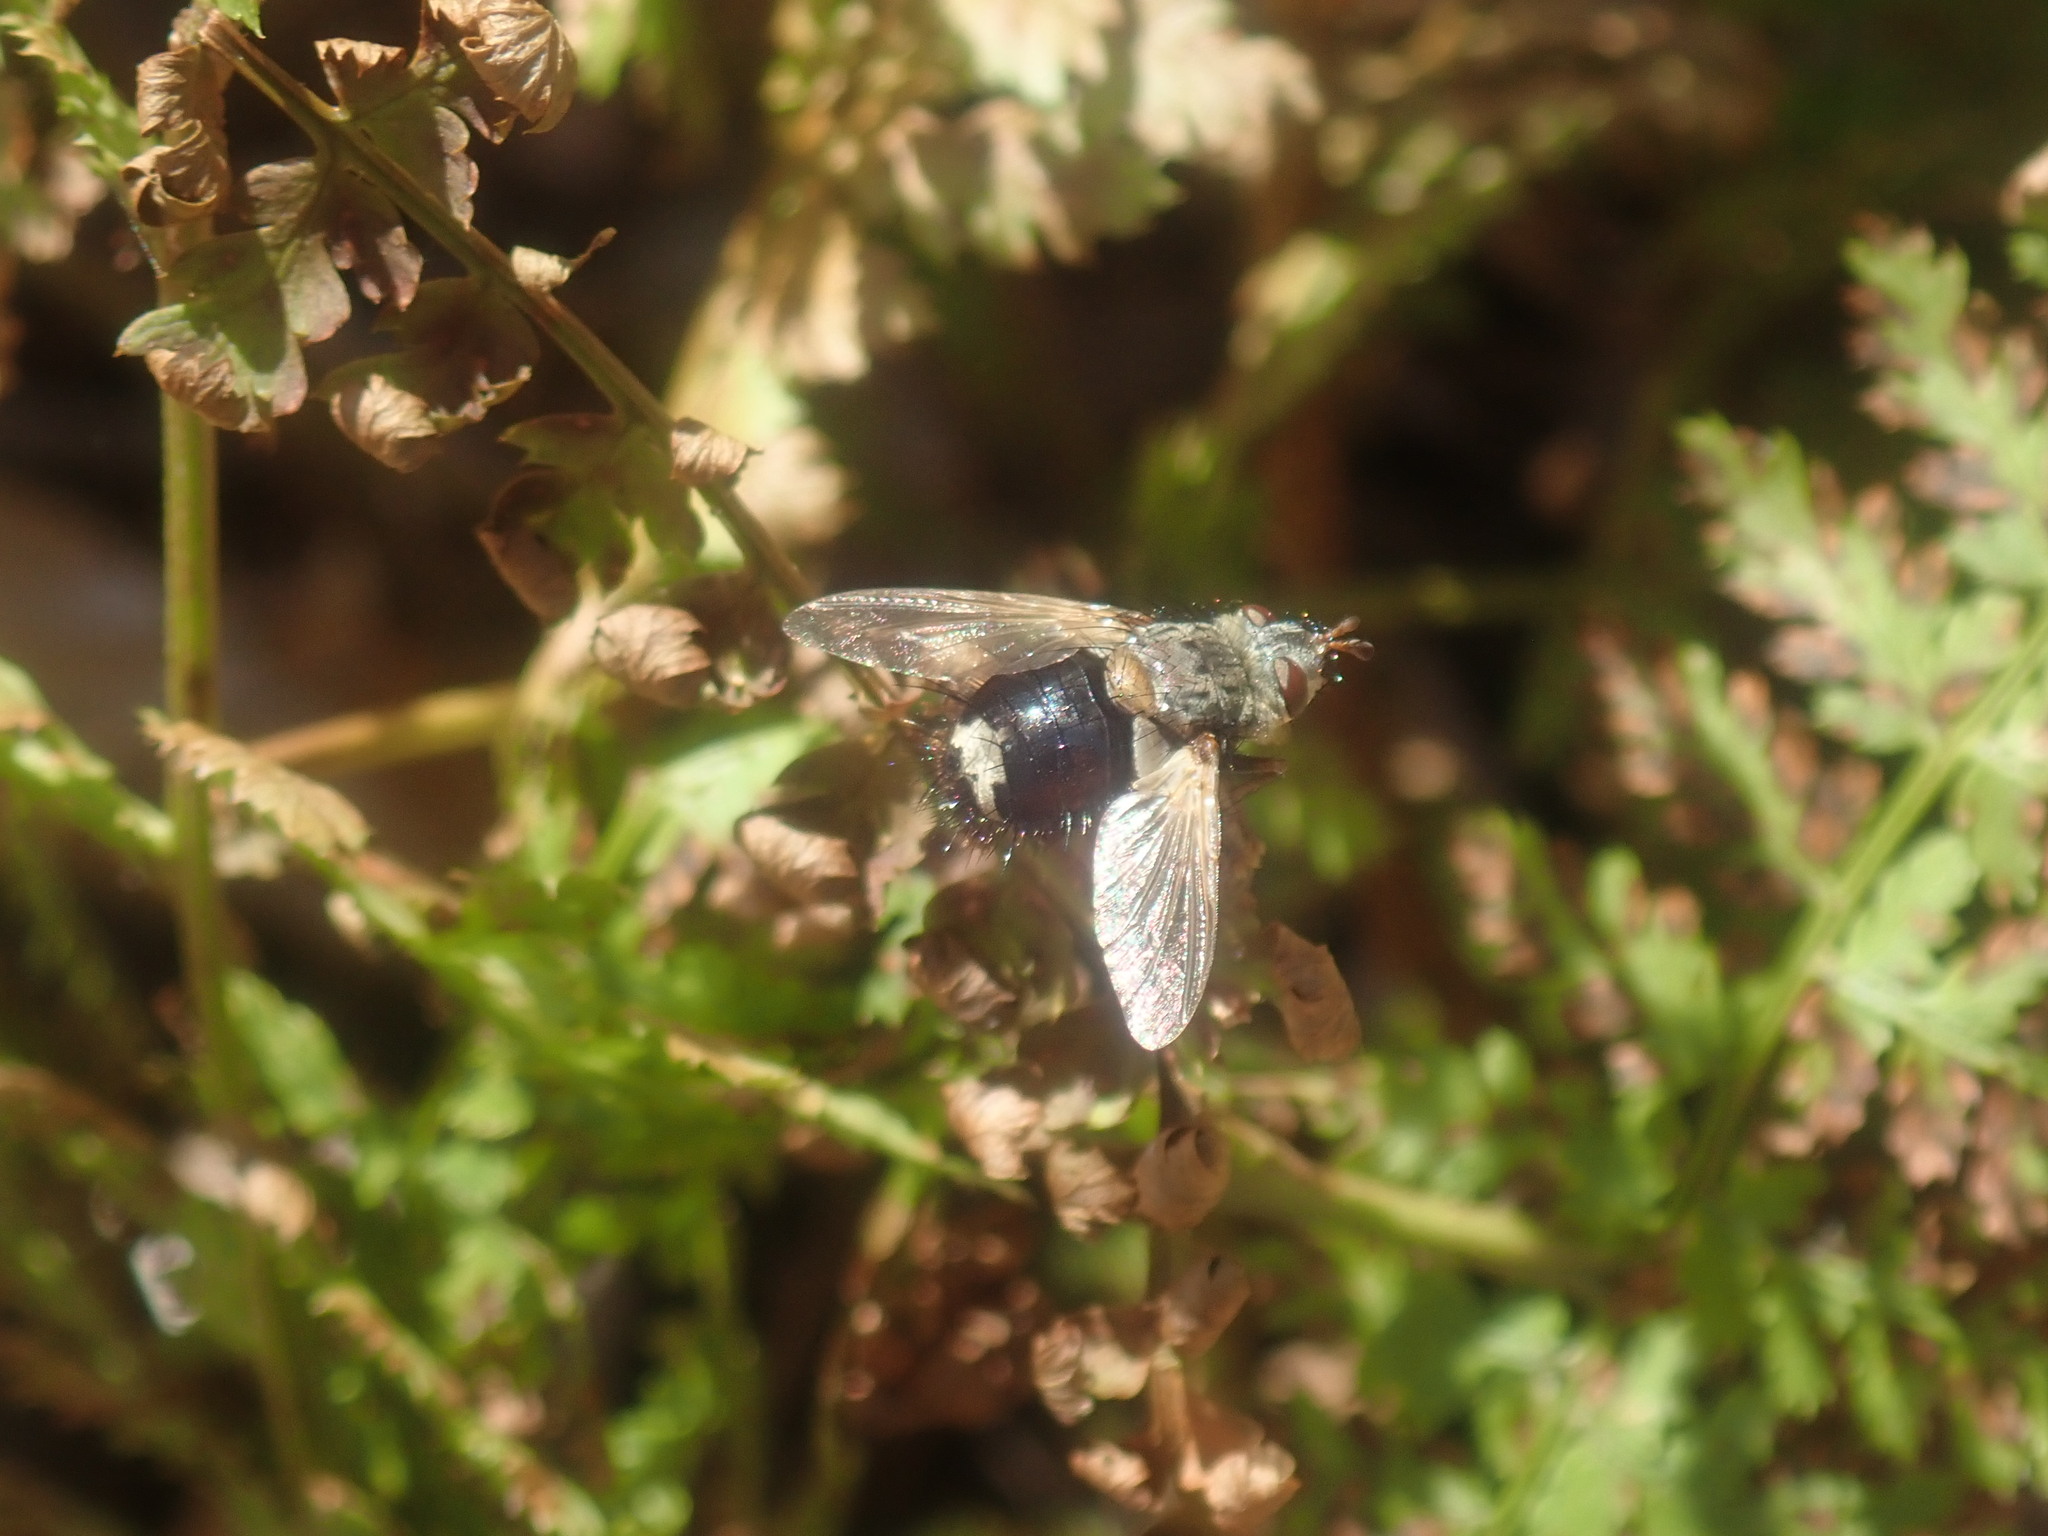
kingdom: Animalia
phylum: Arthropoda
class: Insecta
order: Diptera
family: Tachinidae
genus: Epalpus
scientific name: Epalpus signifer
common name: Early tachinid fly
